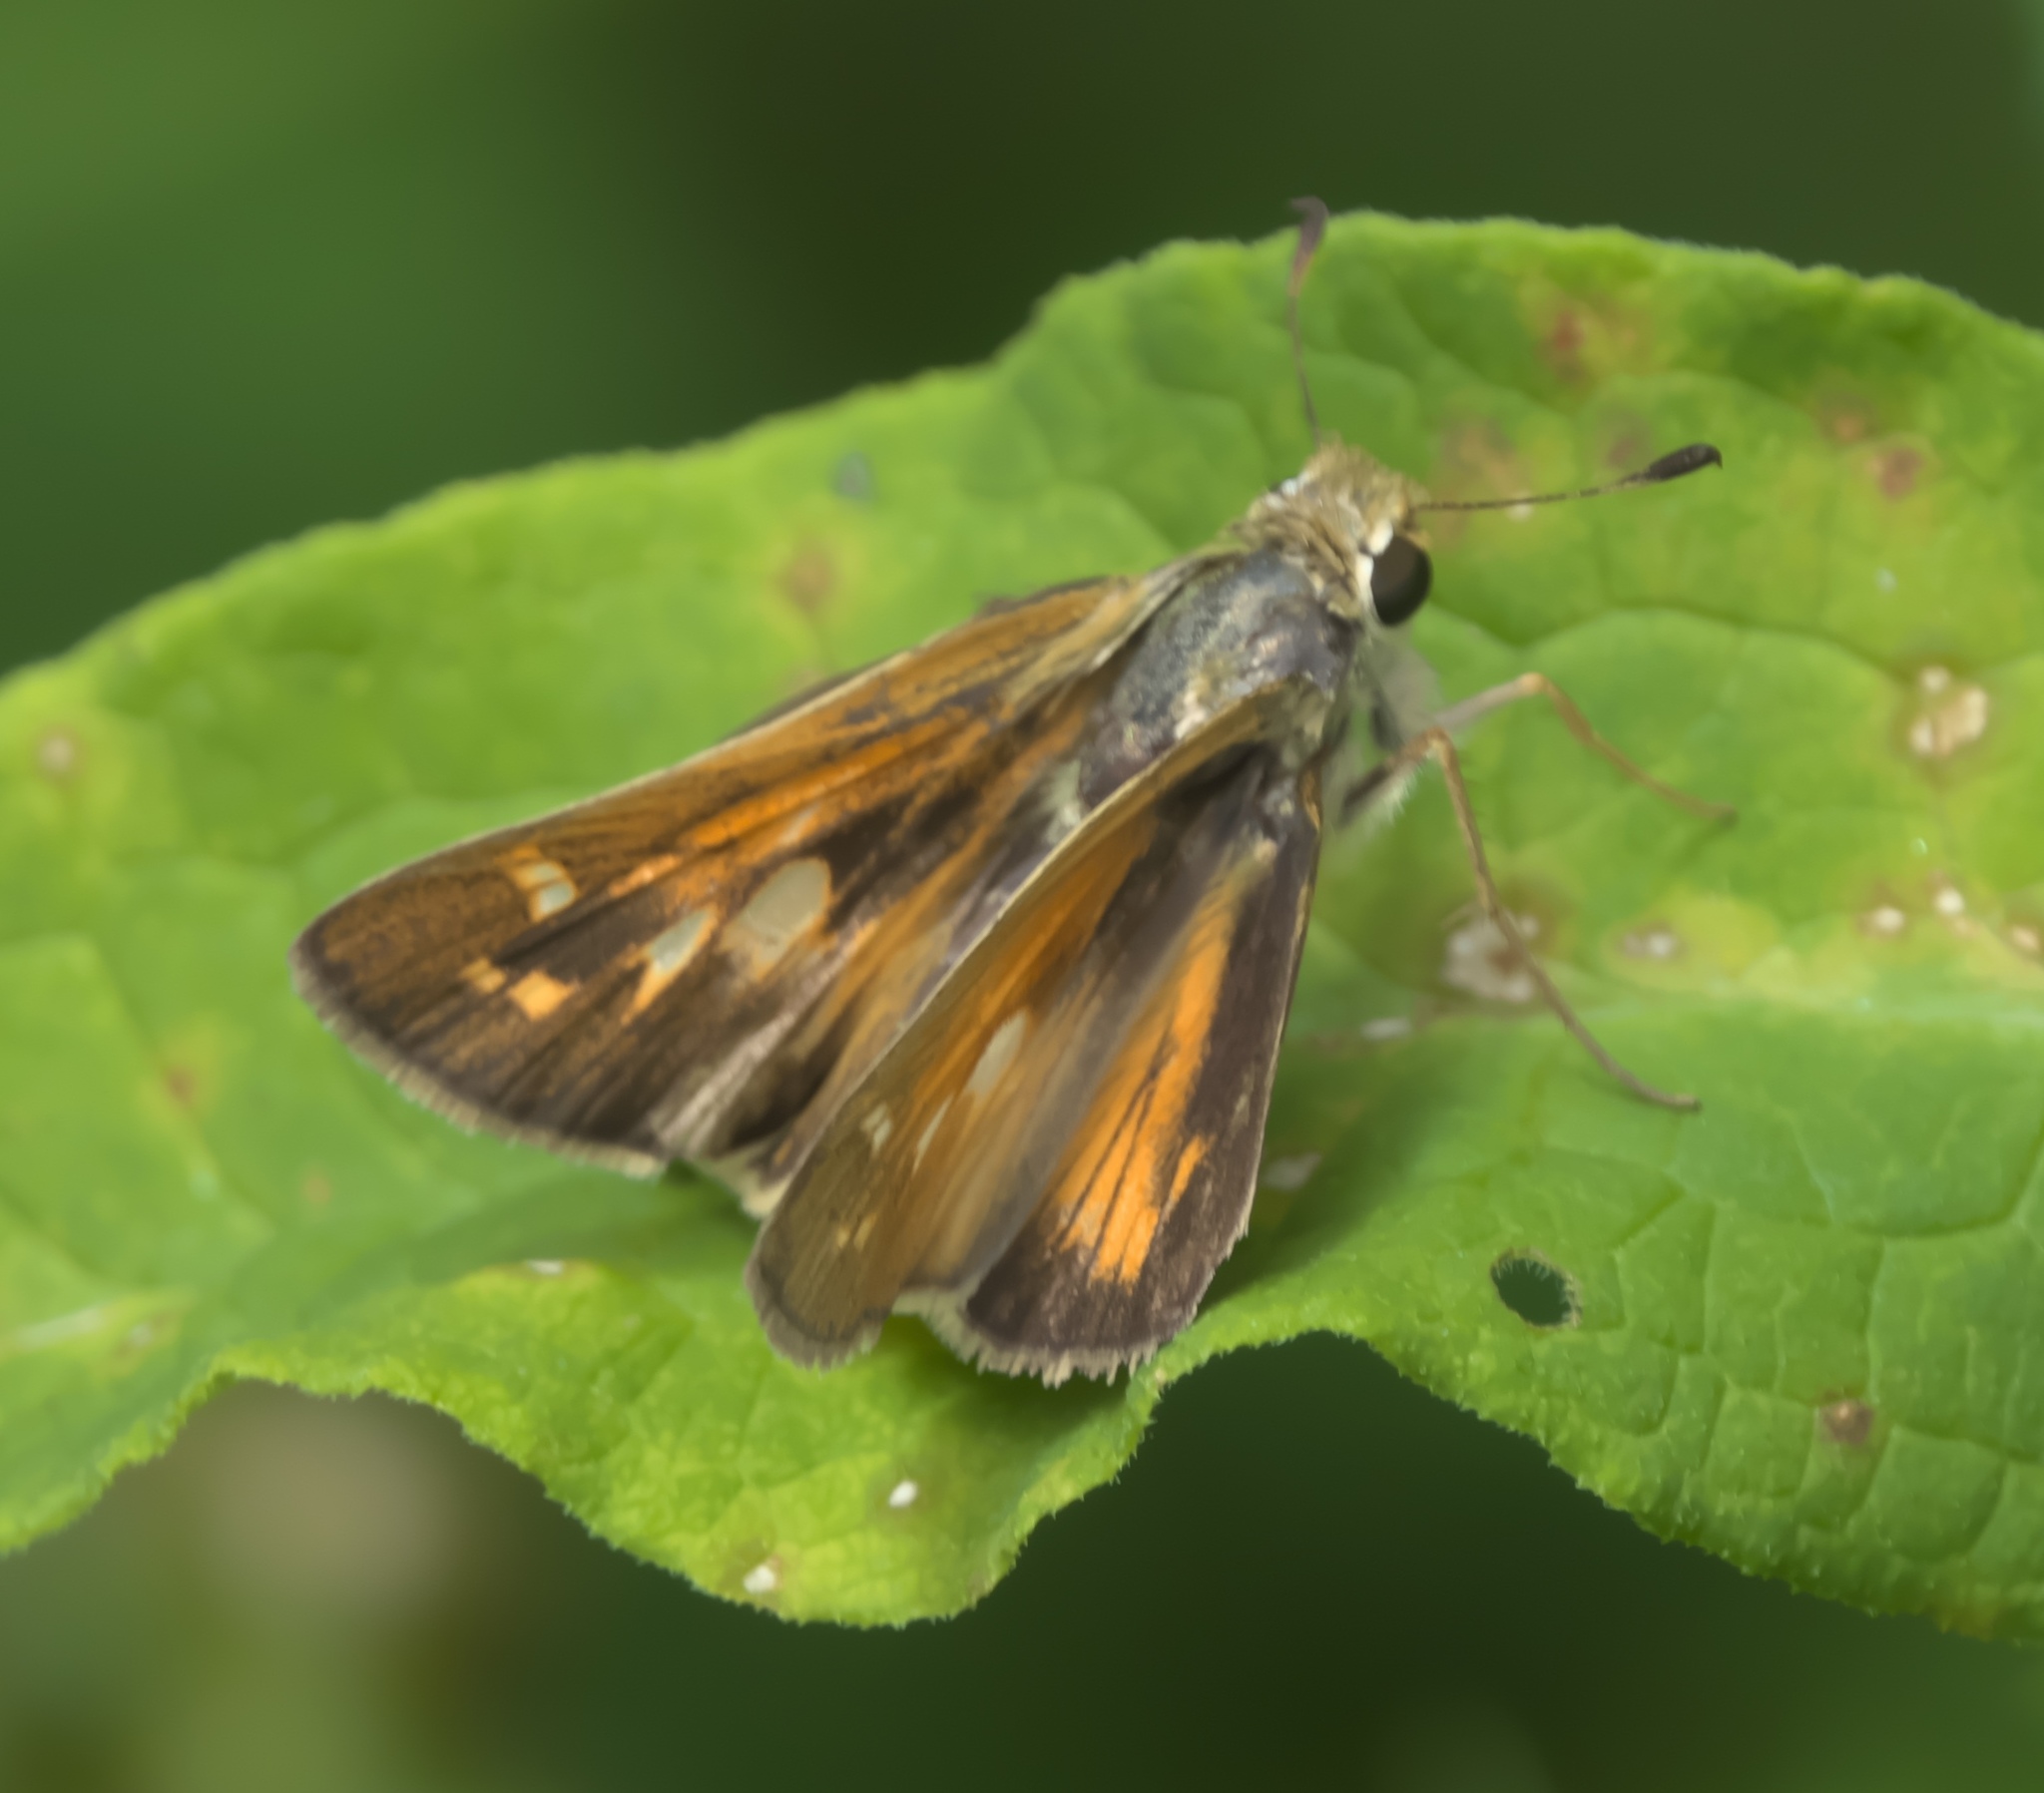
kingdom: Animalia
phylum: Arthropoda
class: Insecta
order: Lepidoptera
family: Hesperiidae
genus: Atalopedes
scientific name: Atalopedes
